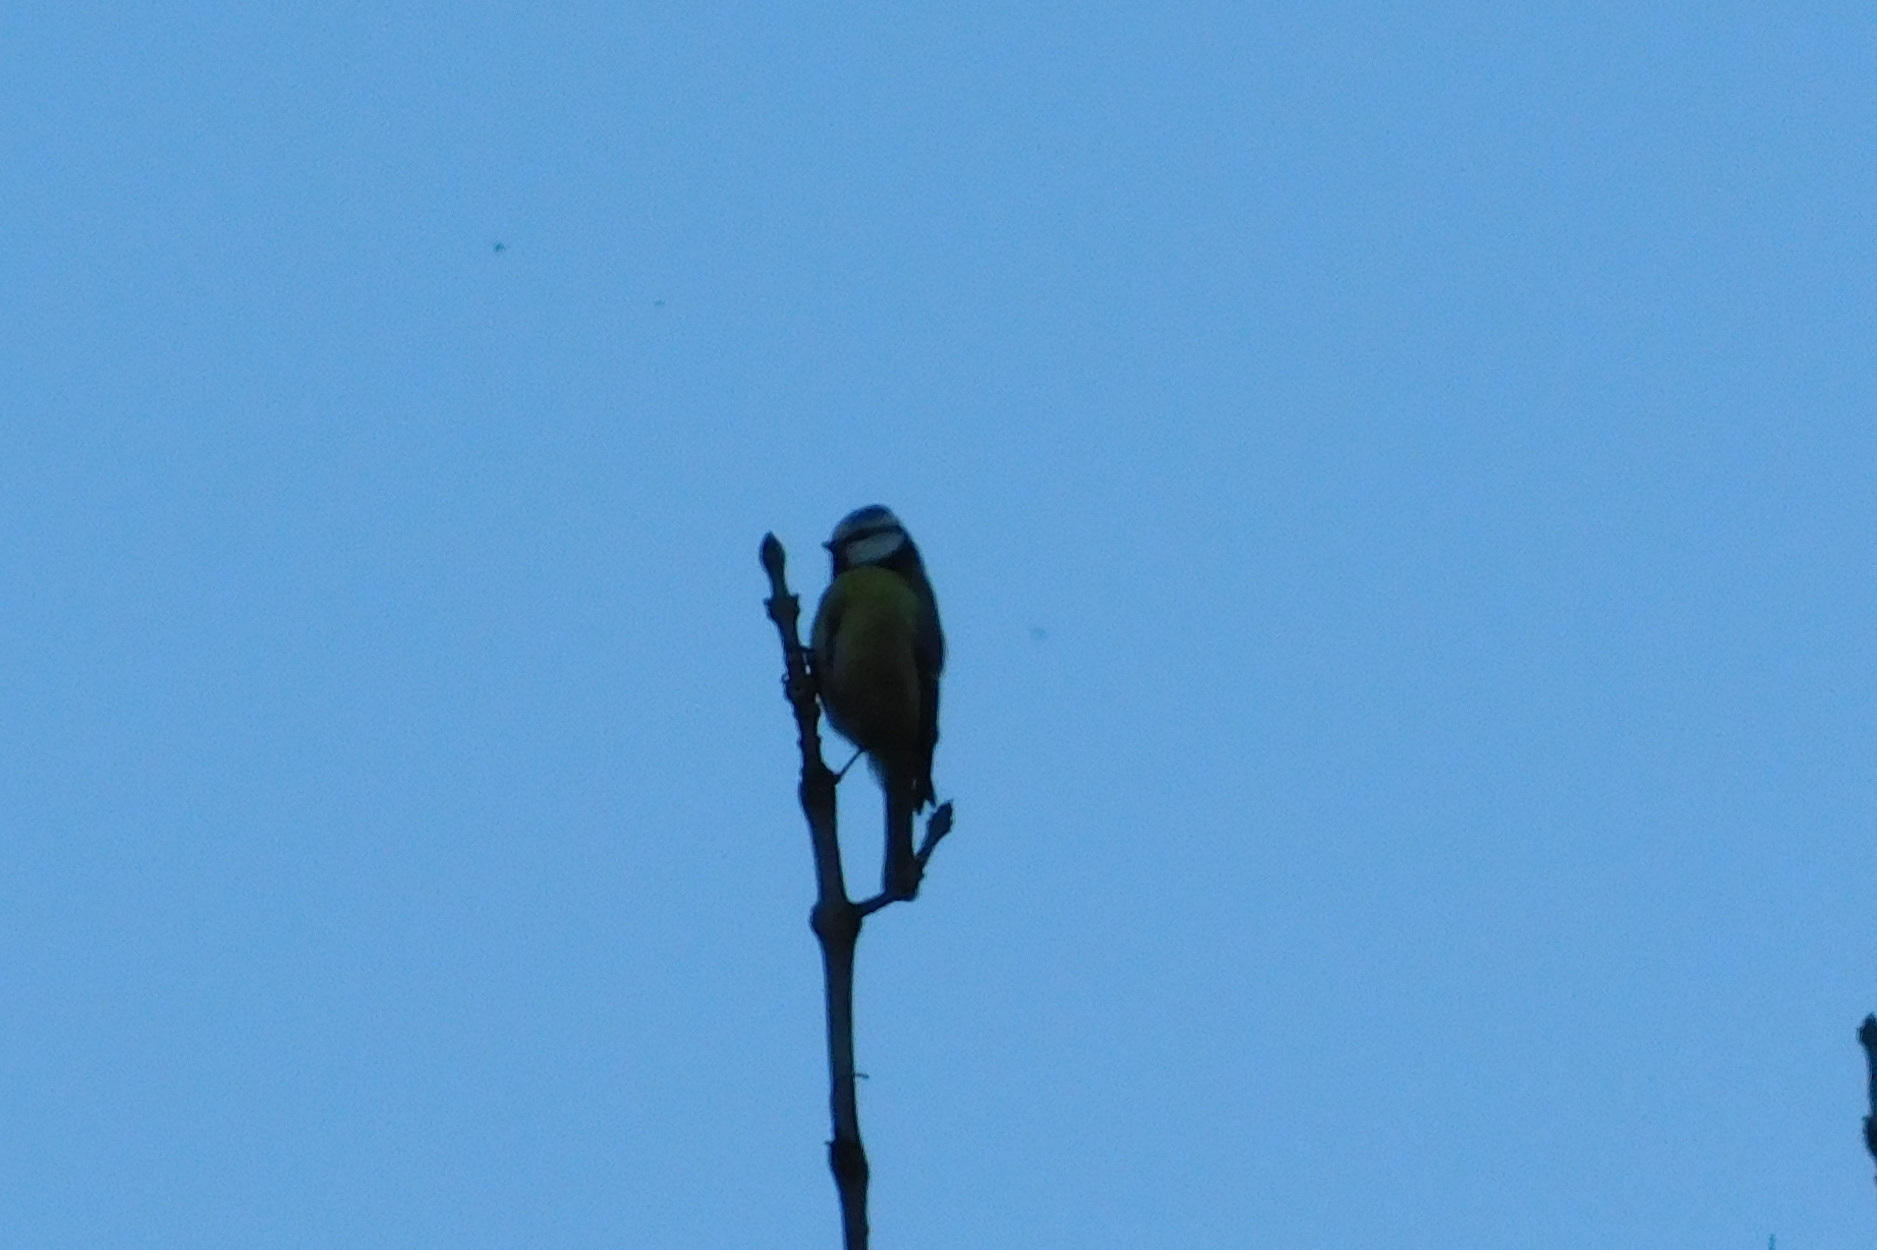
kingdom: Animalia
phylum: Chordata
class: Aves
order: Passeriformes
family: Paridae
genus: Cyanistes
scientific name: Cyanistes caeruleus
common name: Eurasian blue tit
